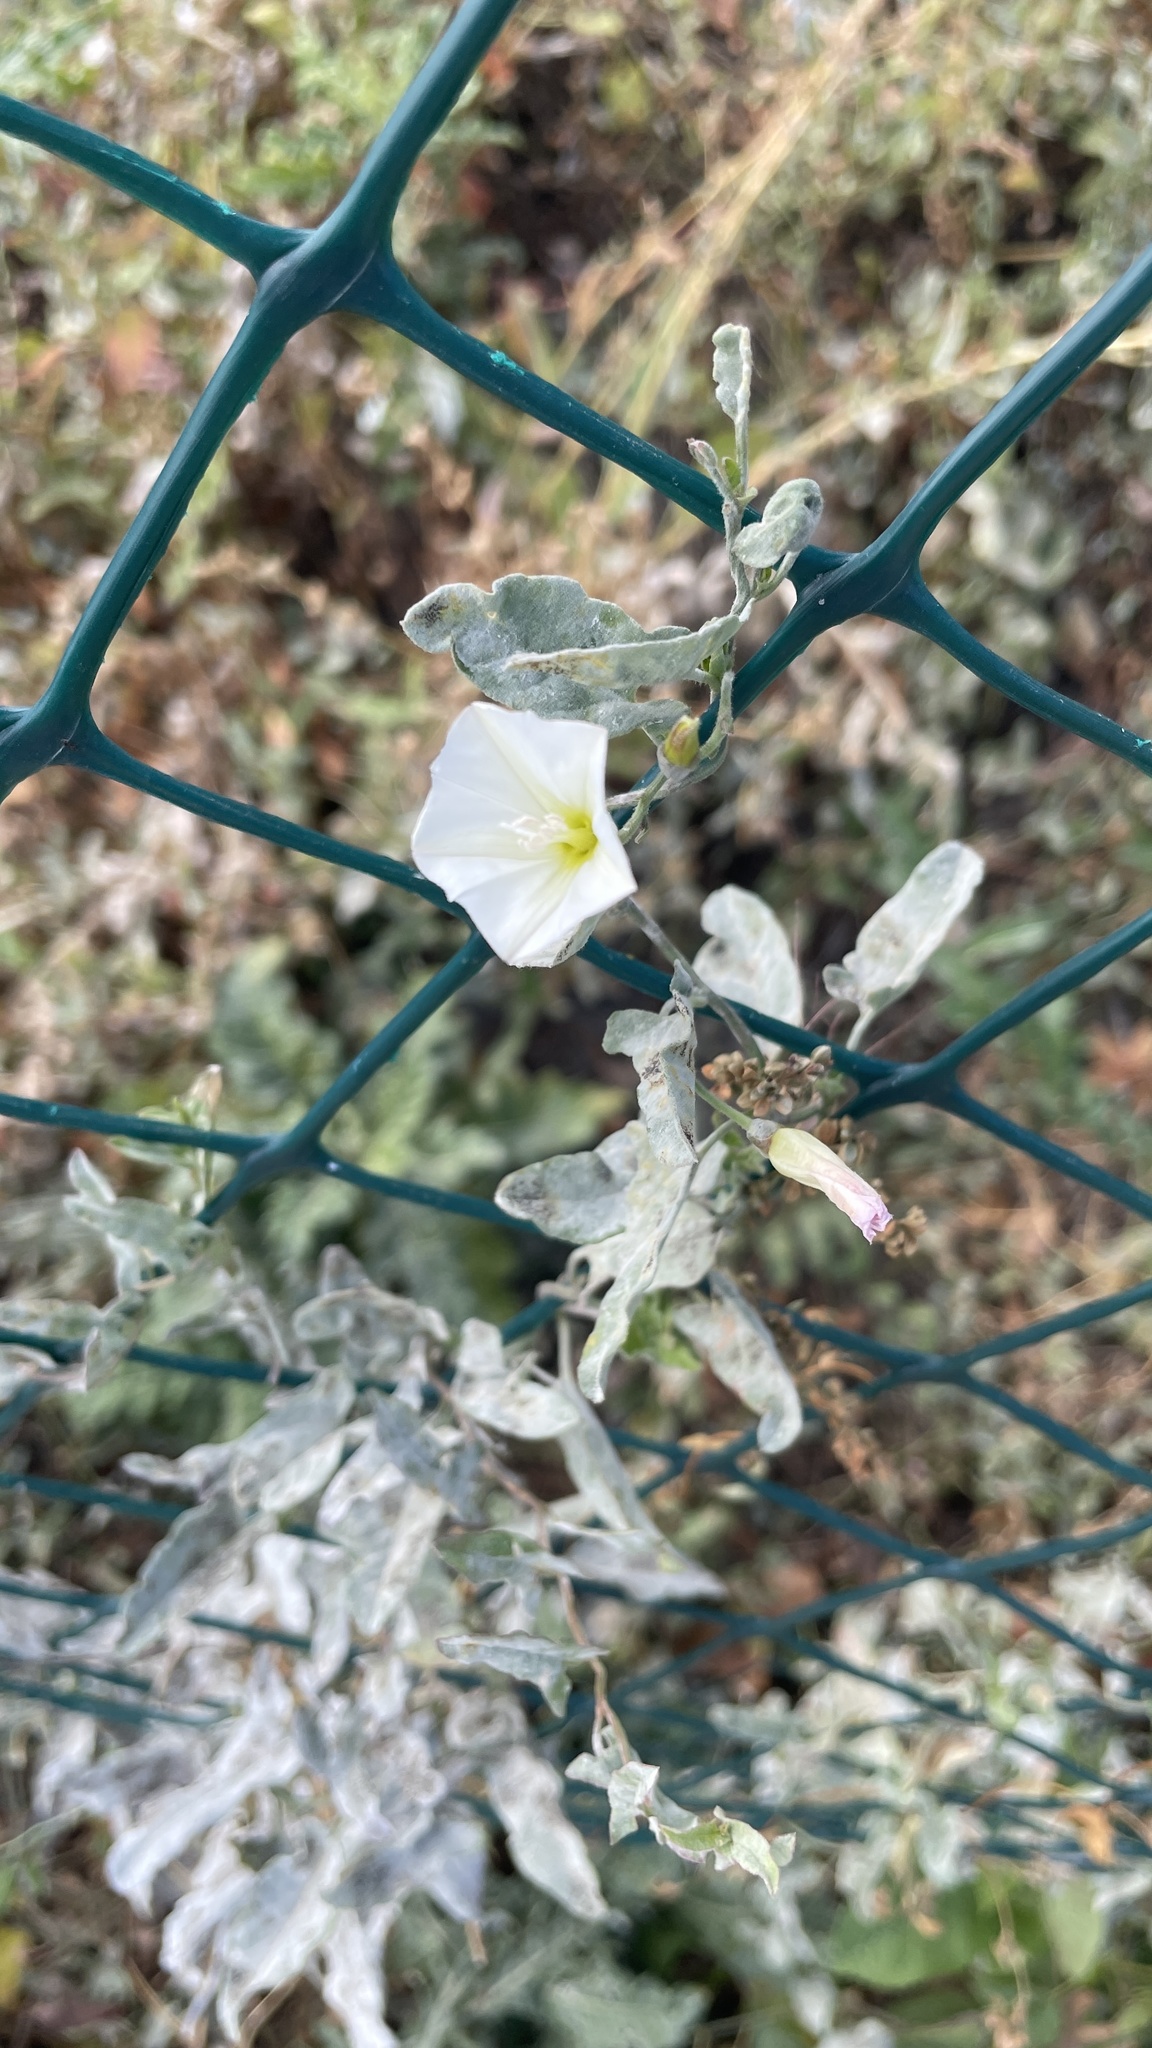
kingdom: Plantae
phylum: Tracheophyta
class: Magnoliopsida
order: Solanales
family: Convolvulaceae
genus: Convolvulus
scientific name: Convolvulus arvensis
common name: Field bindweed
